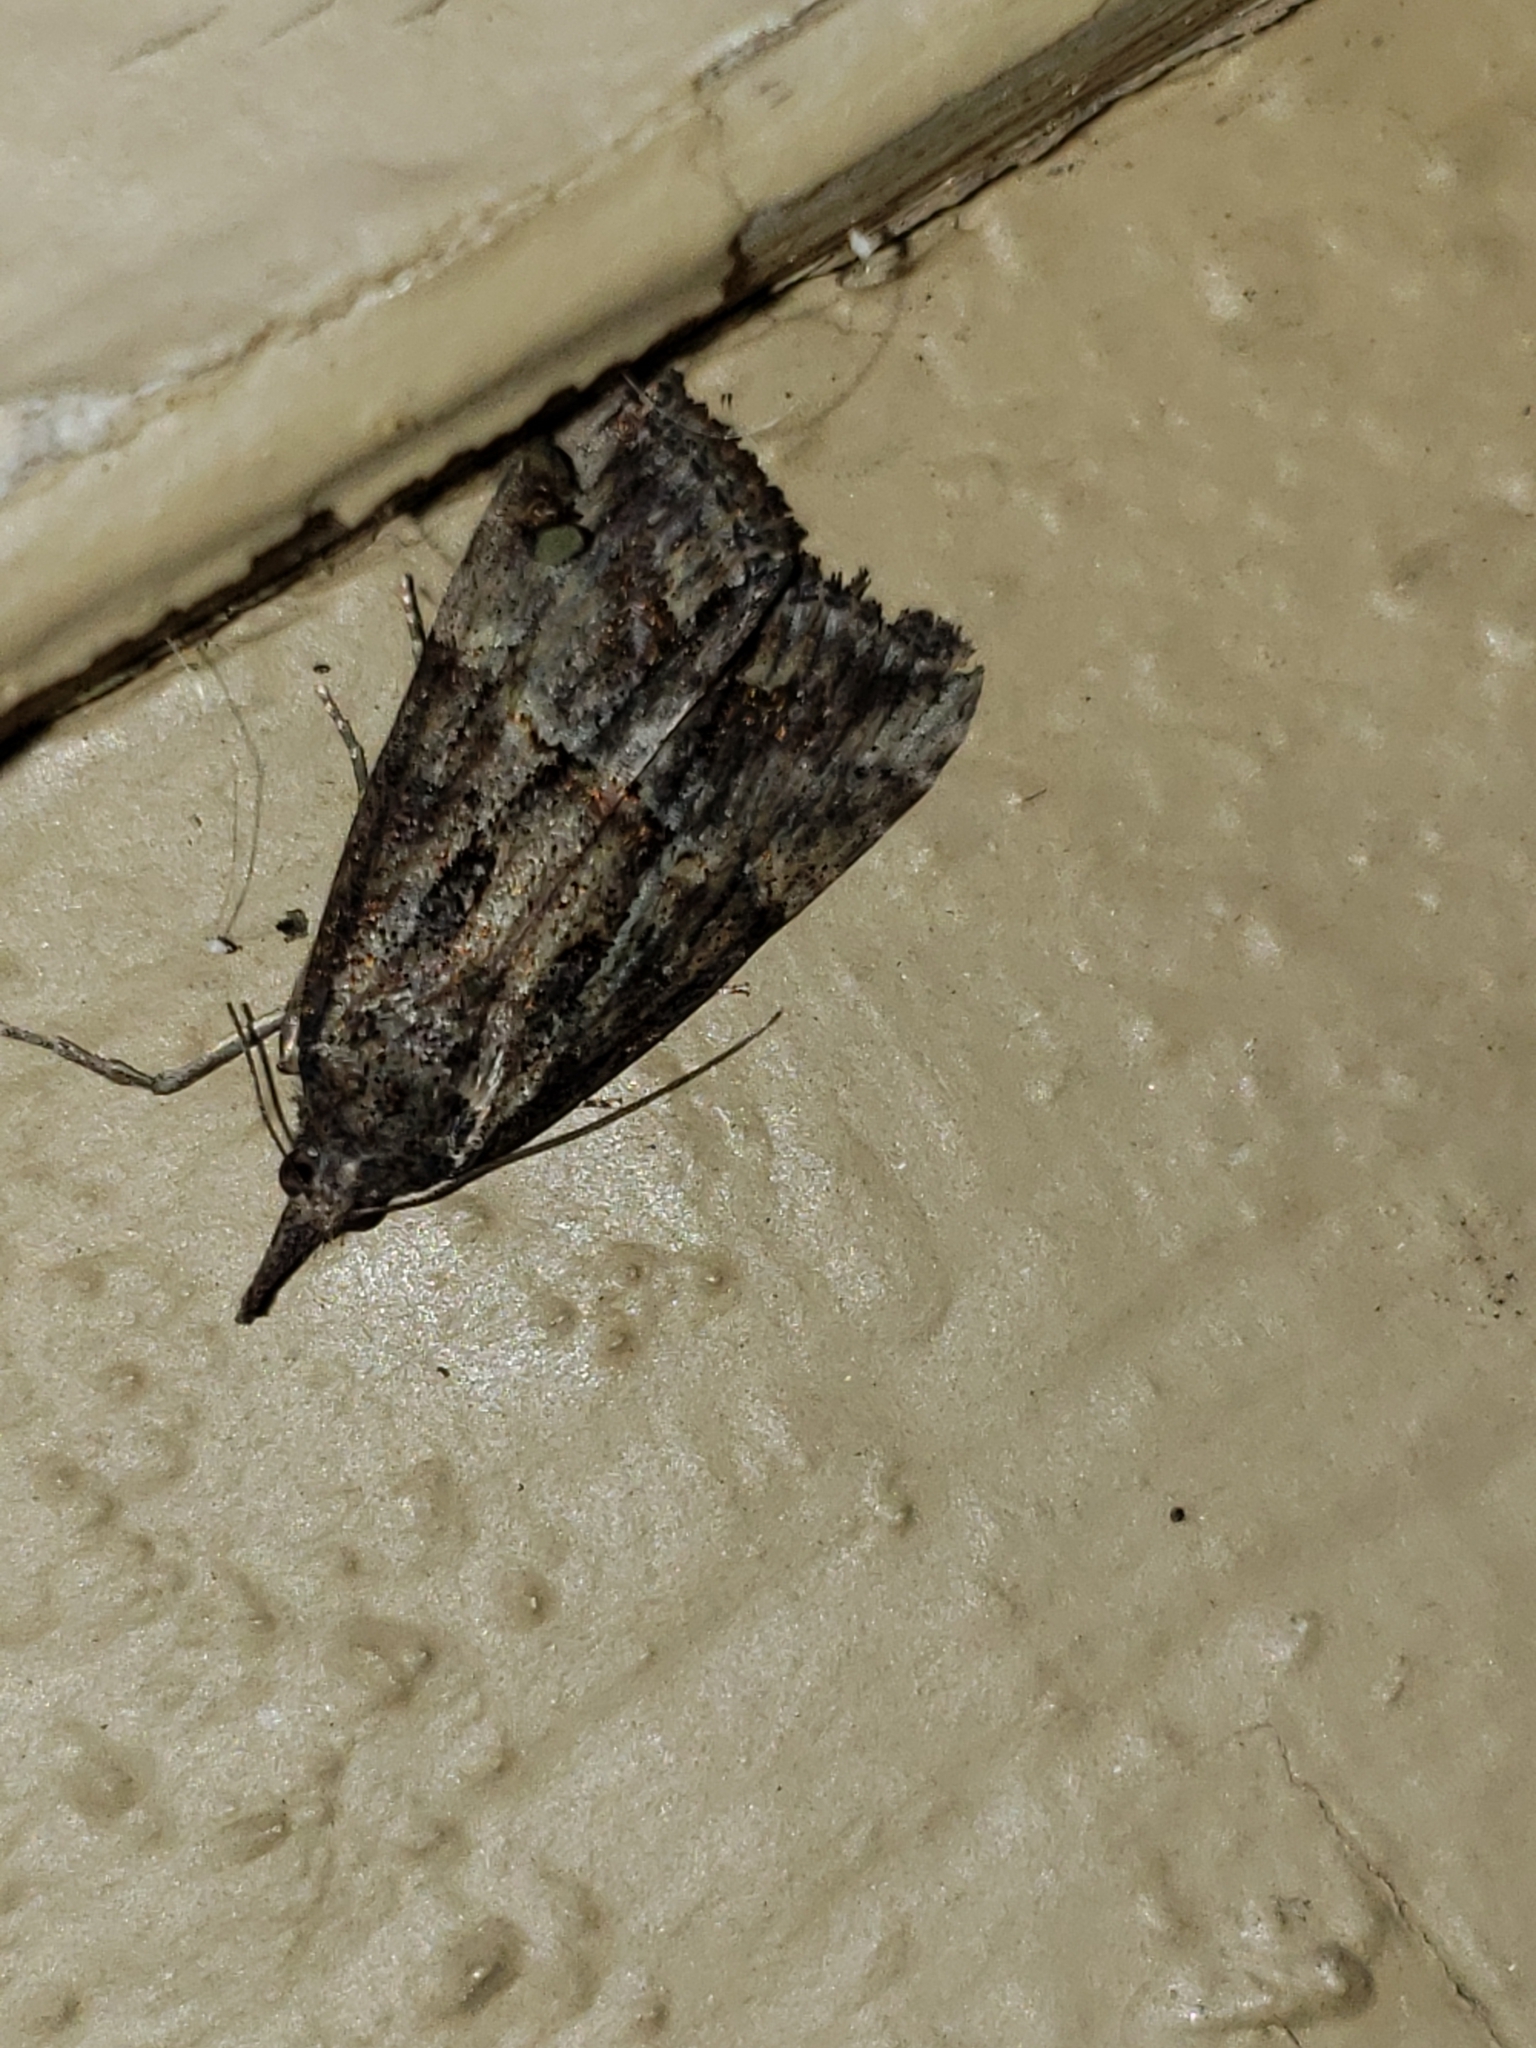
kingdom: Animalia
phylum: Arthropoda
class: Insecta
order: Lepidoptera
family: Erebidae
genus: Hypena
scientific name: Hypena scabra
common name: Green cloverworm
